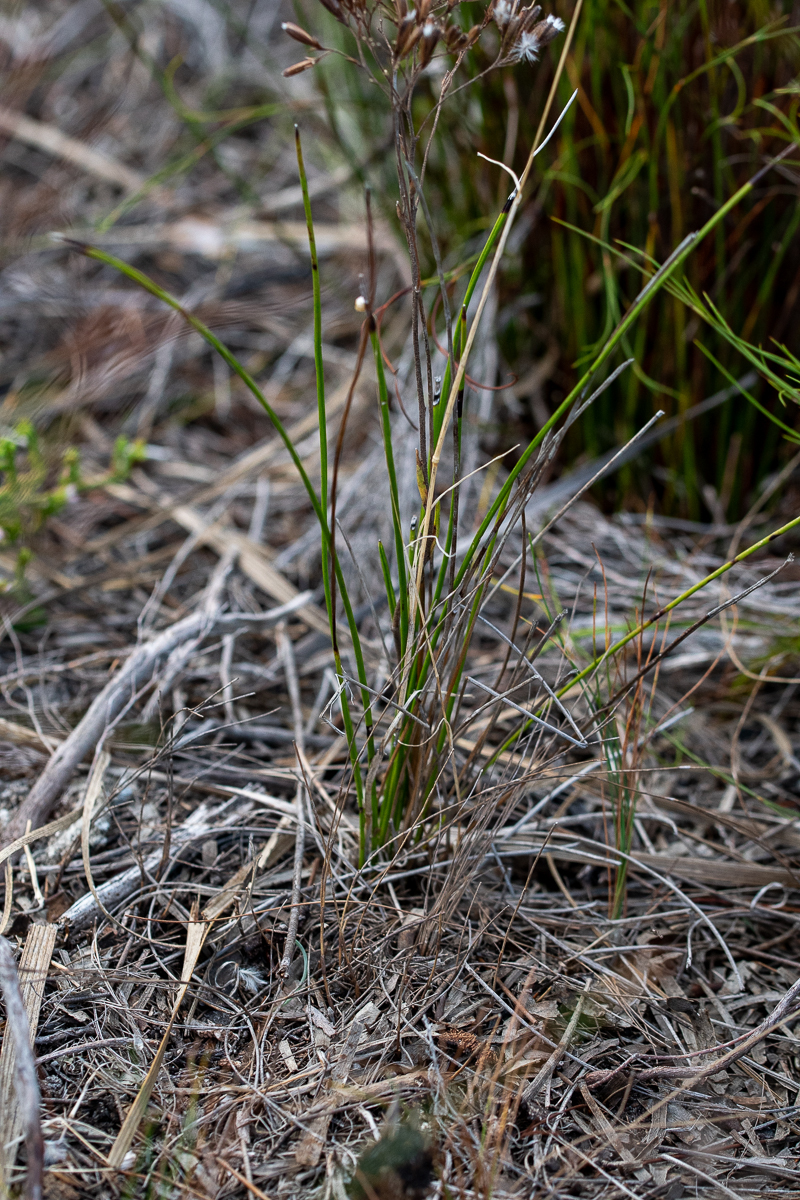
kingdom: Plantae
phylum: Tracheophyta
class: Magnoliopsida
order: Asterales
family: Asteraceae
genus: Corymbium
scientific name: Corymbium africanum
